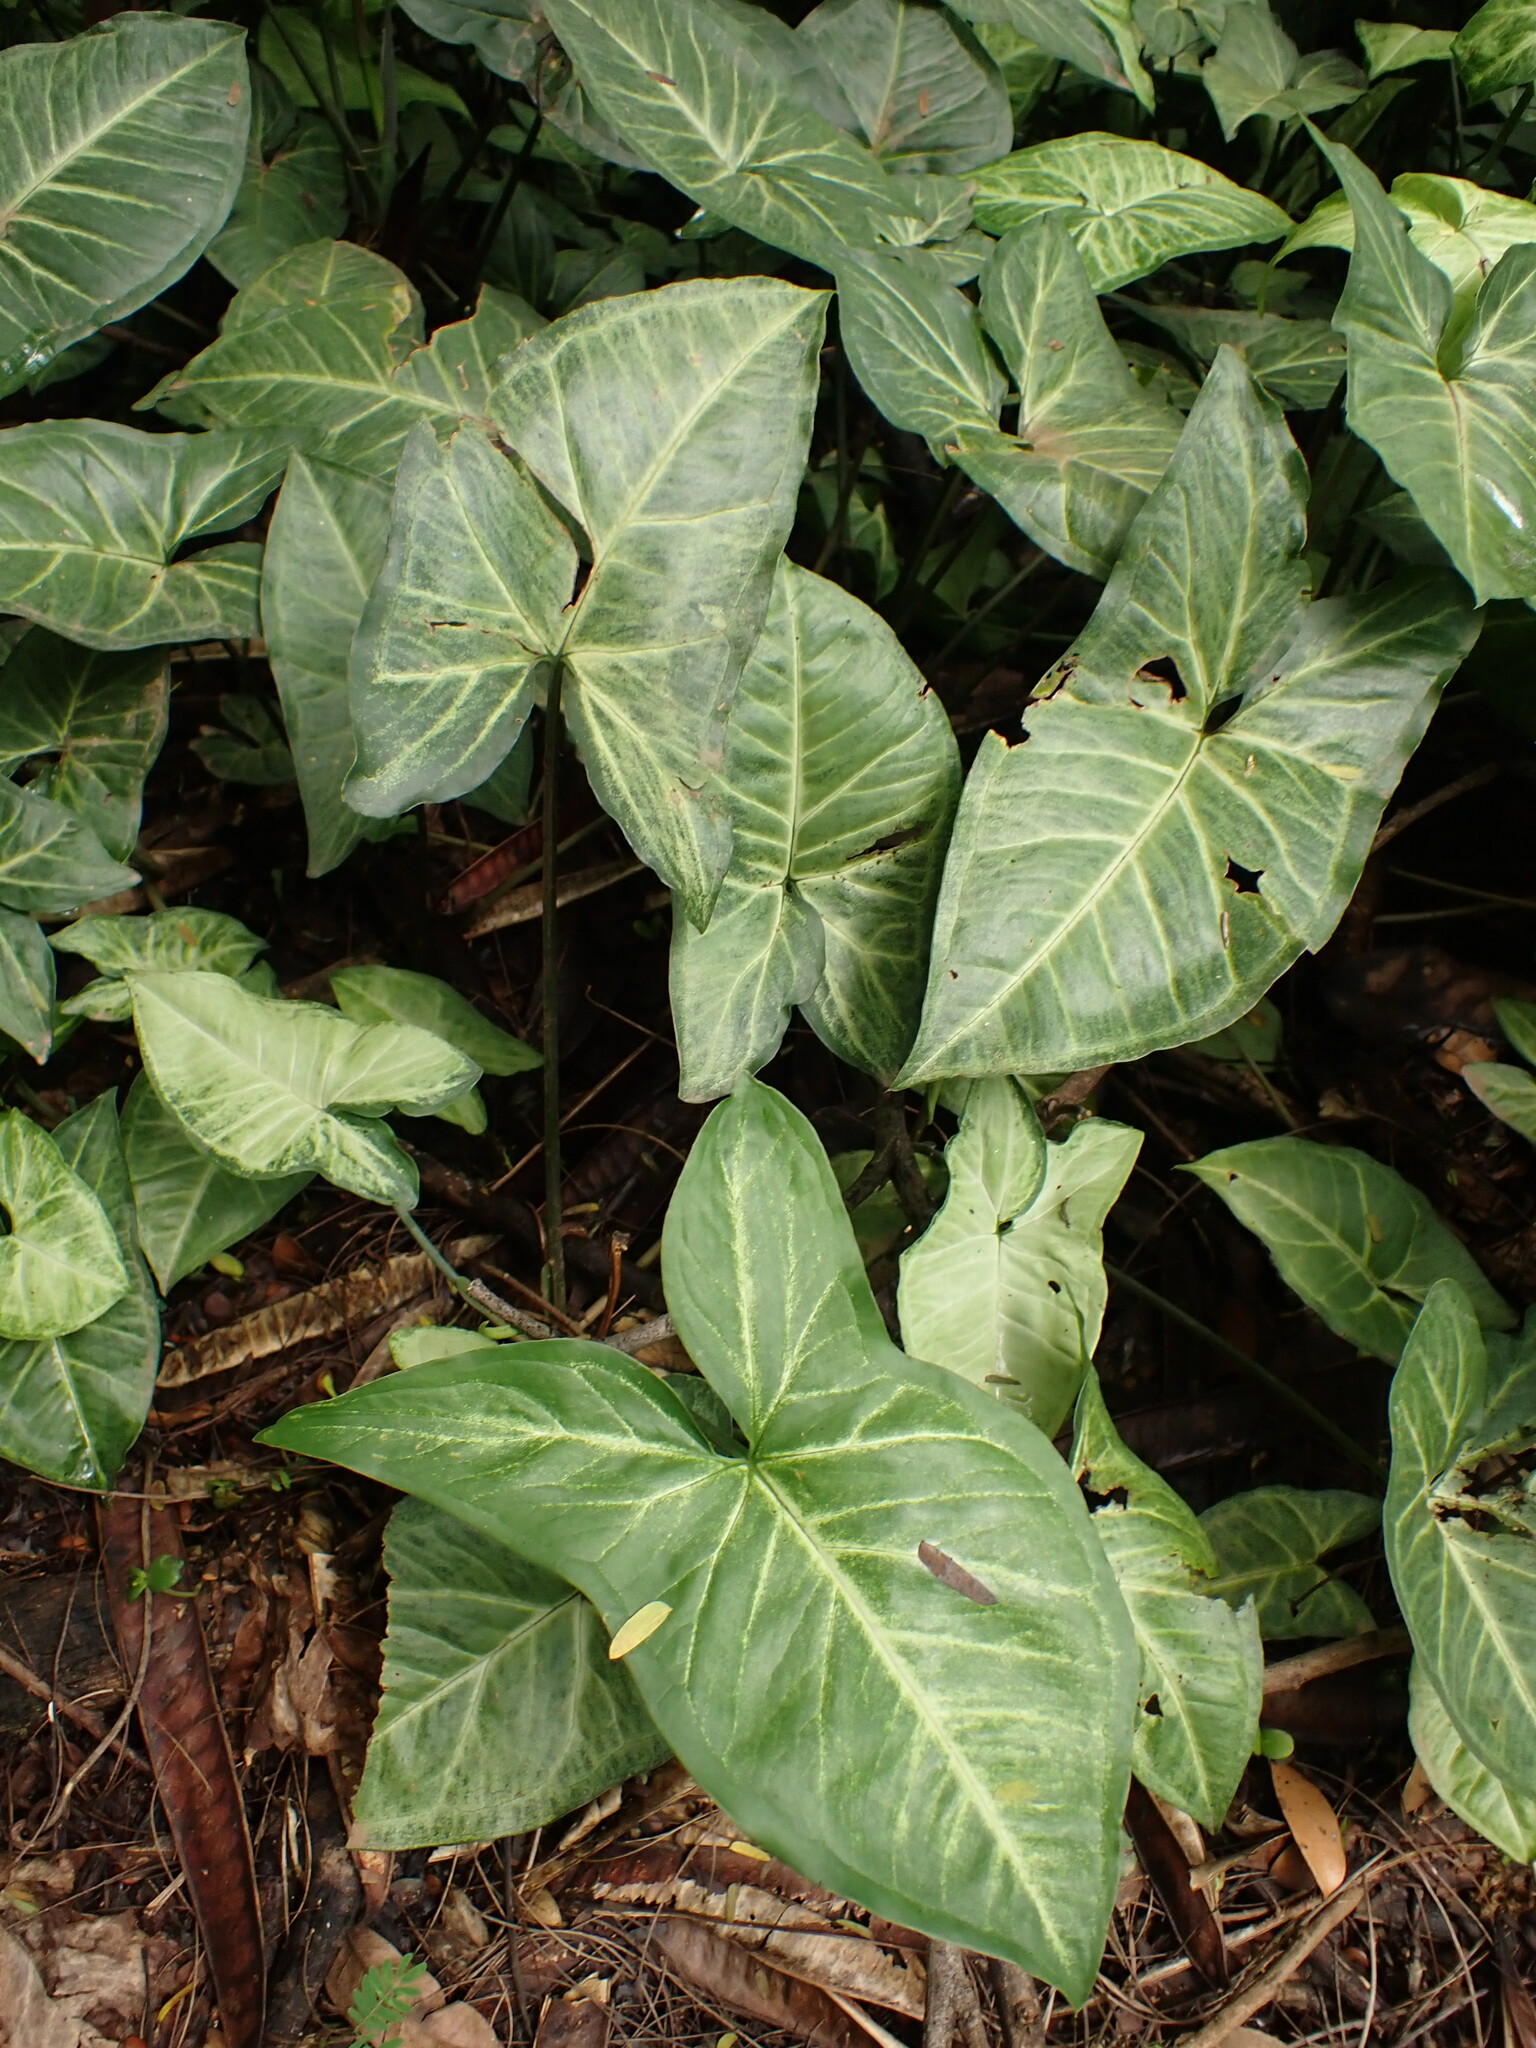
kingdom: Plantae
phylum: Tracheophyta
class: Liliopsida
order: Alismatales
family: Araceae
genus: Syngonium
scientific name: Syngonium podophyllum
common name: American evergreen
